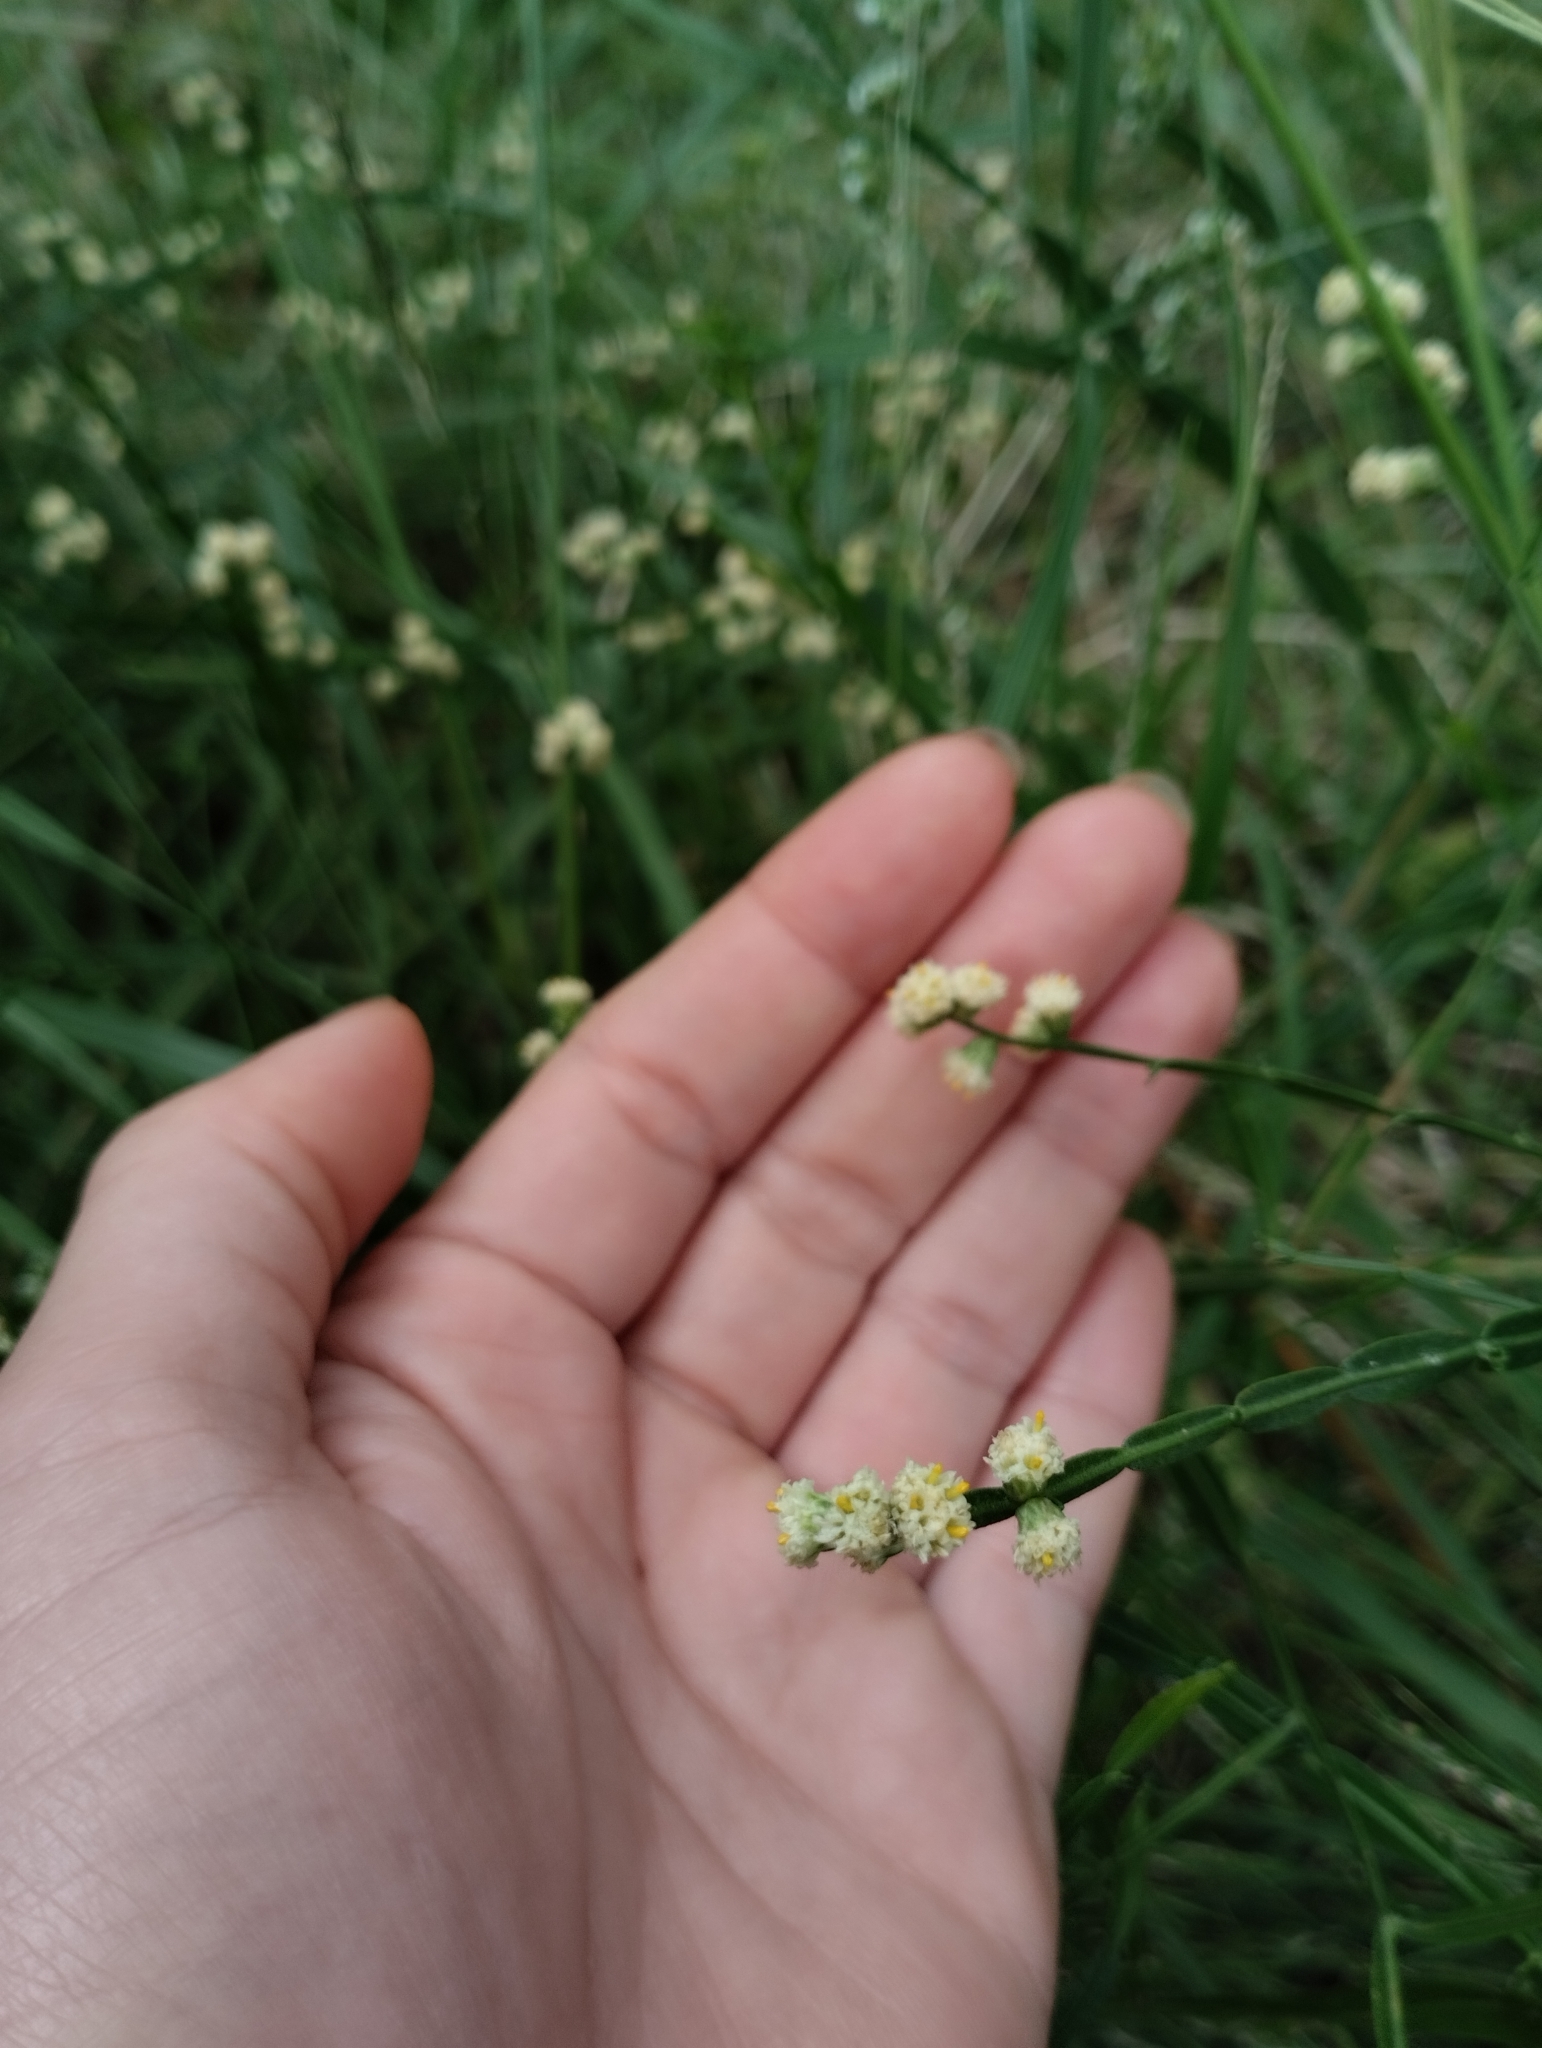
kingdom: Plantae
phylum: Tracheophyta
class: Magnoliopsida
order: Asterales
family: Asteraceae
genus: Baccharis
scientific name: Baccharis articulata
